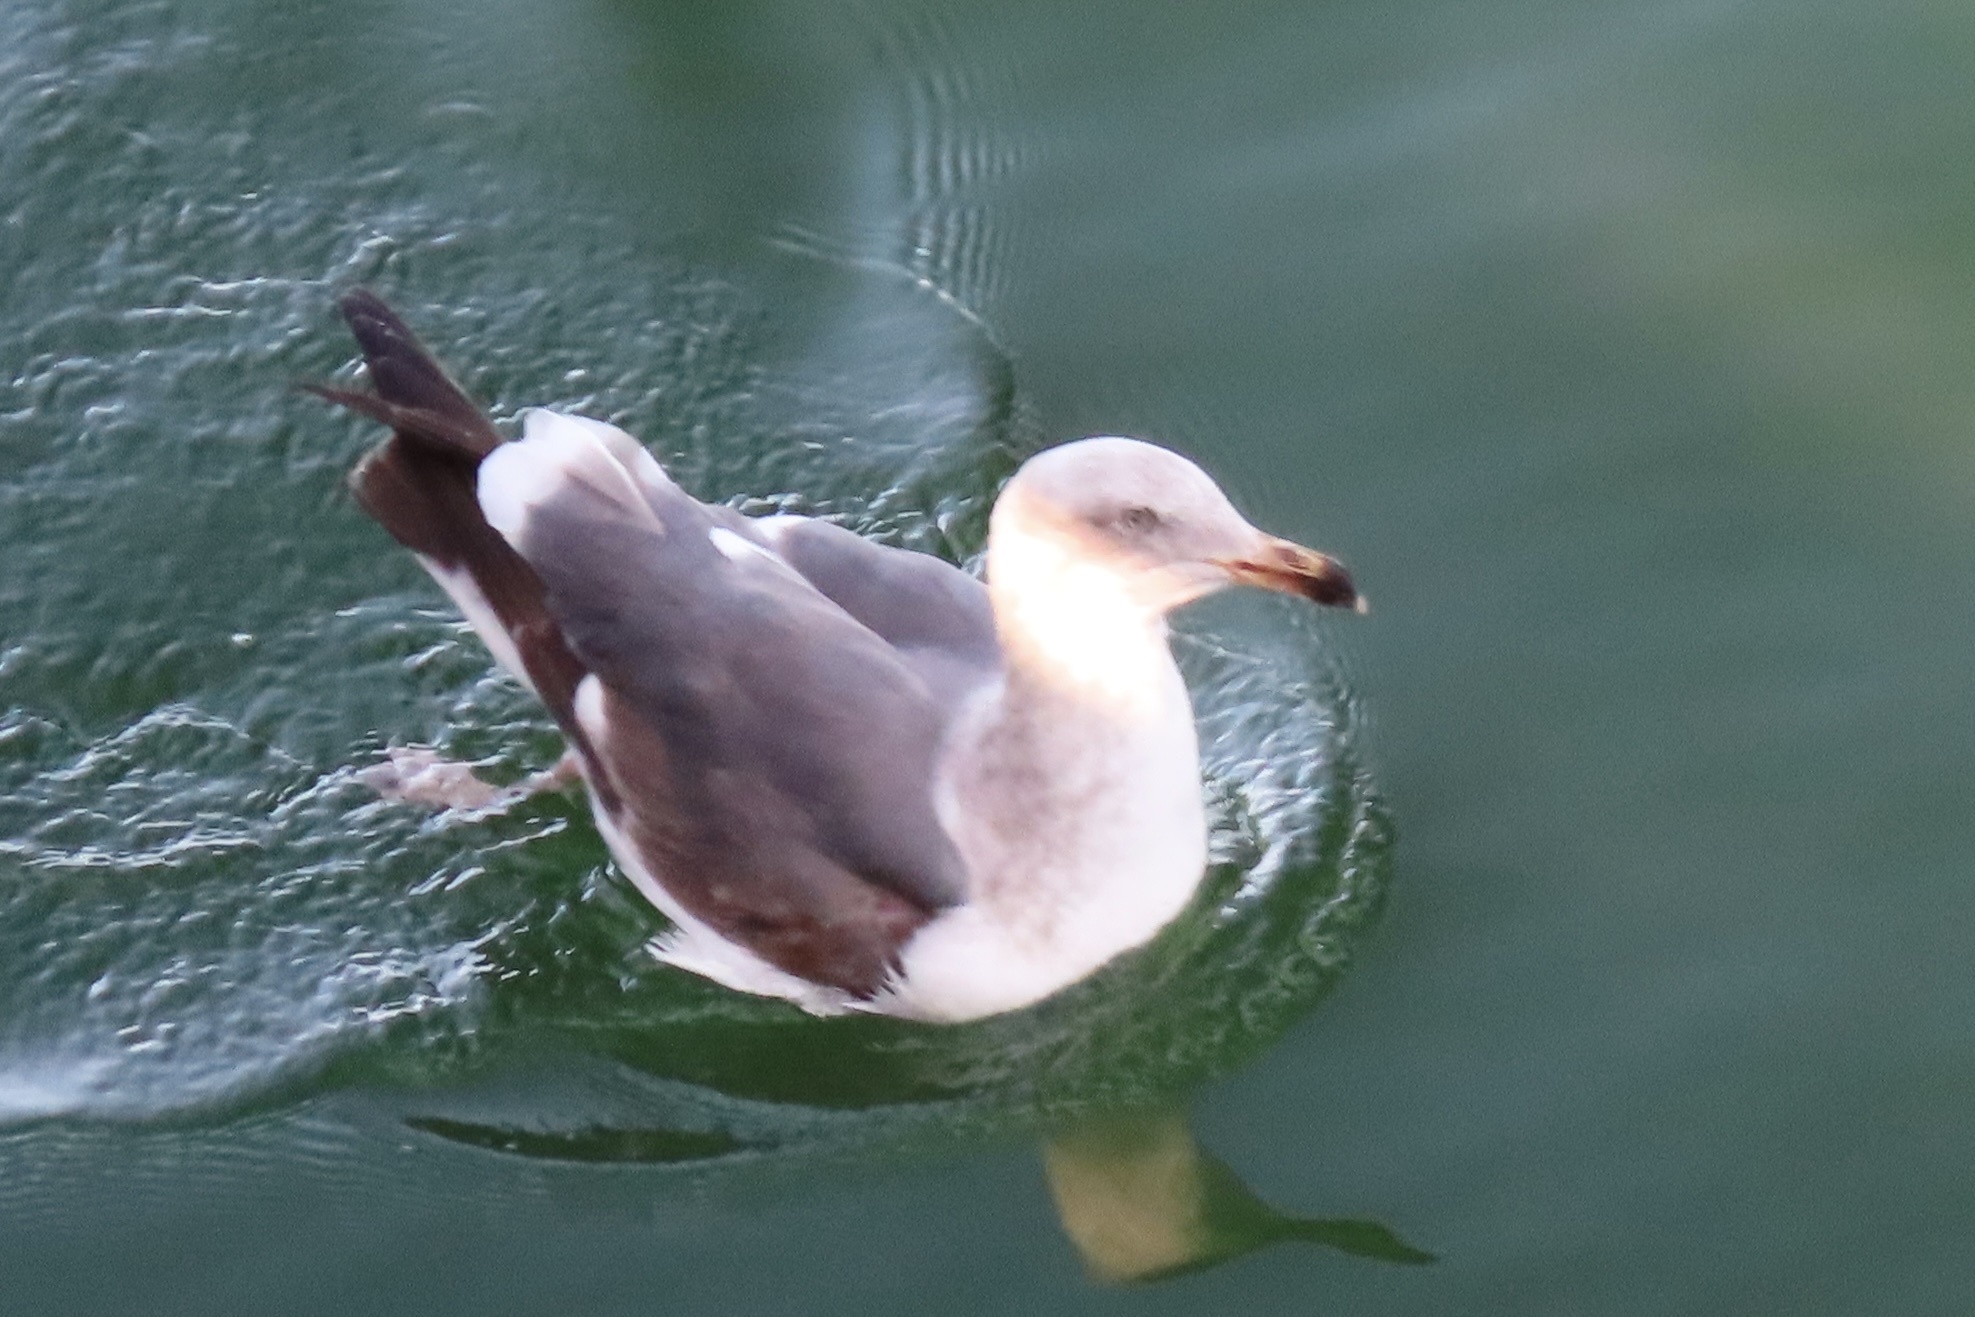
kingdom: Animalia
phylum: Chordata
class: Aves
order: Charadriiformes
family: Laridae
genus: Larus
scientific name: Larus occidentalis
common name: Western gull
